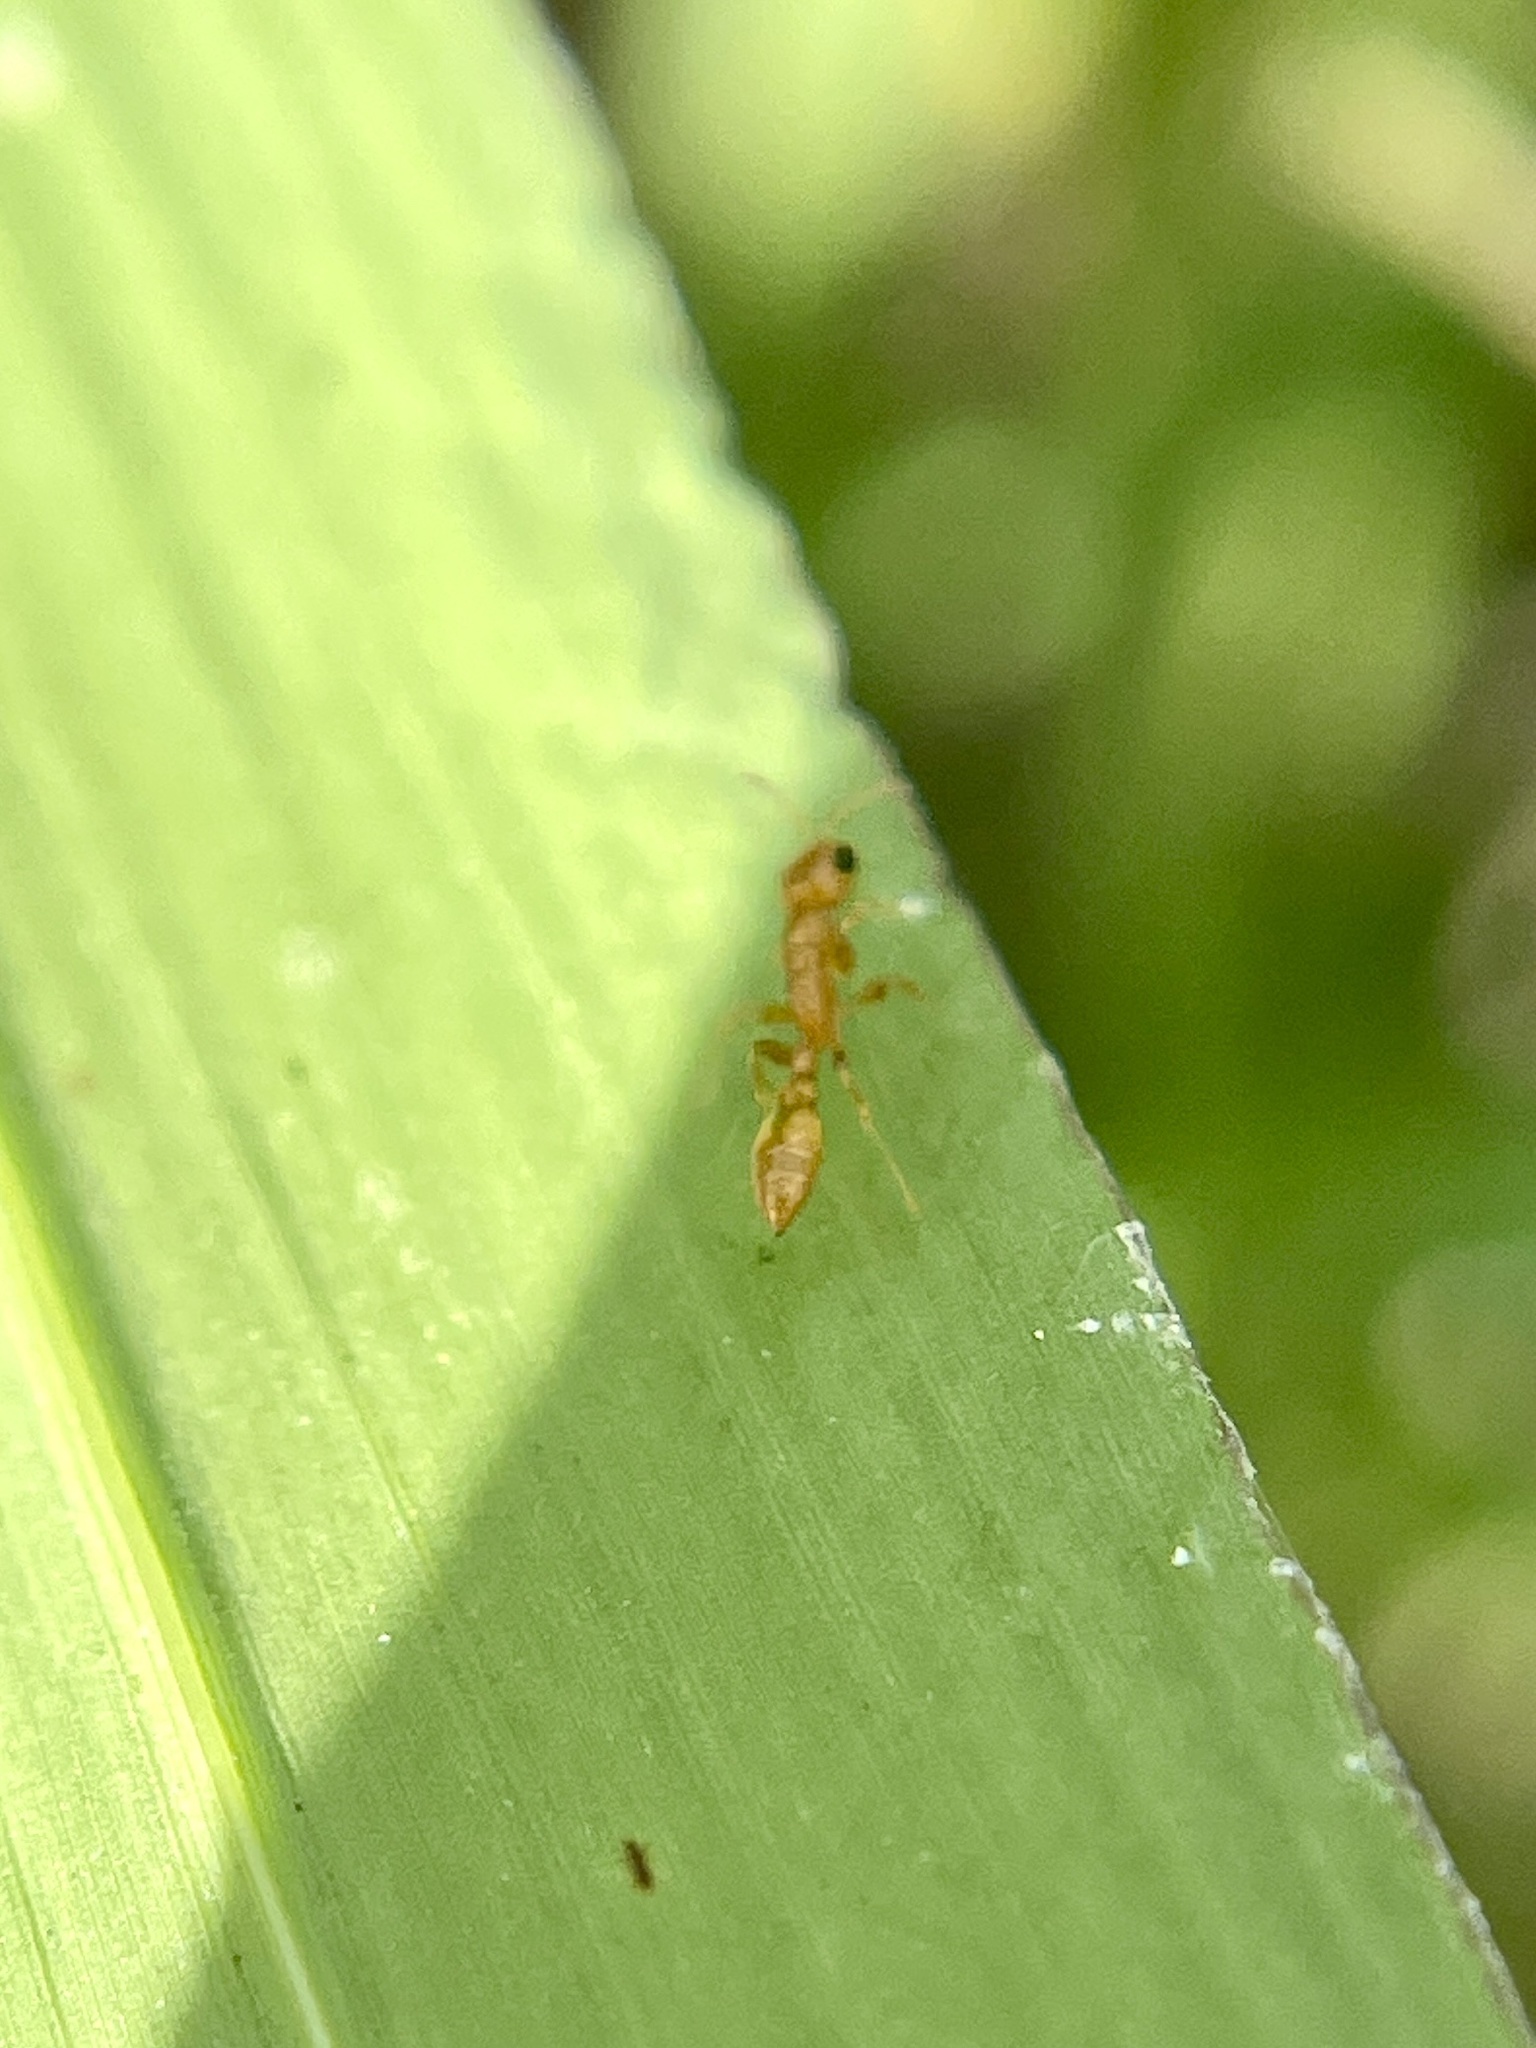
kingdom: Animalia
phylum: Arthropoda
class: Insecta
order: Hymenoptera
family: Formicidae
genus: Pseudomyrmex
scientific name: Pseudomyrmex pallidus
